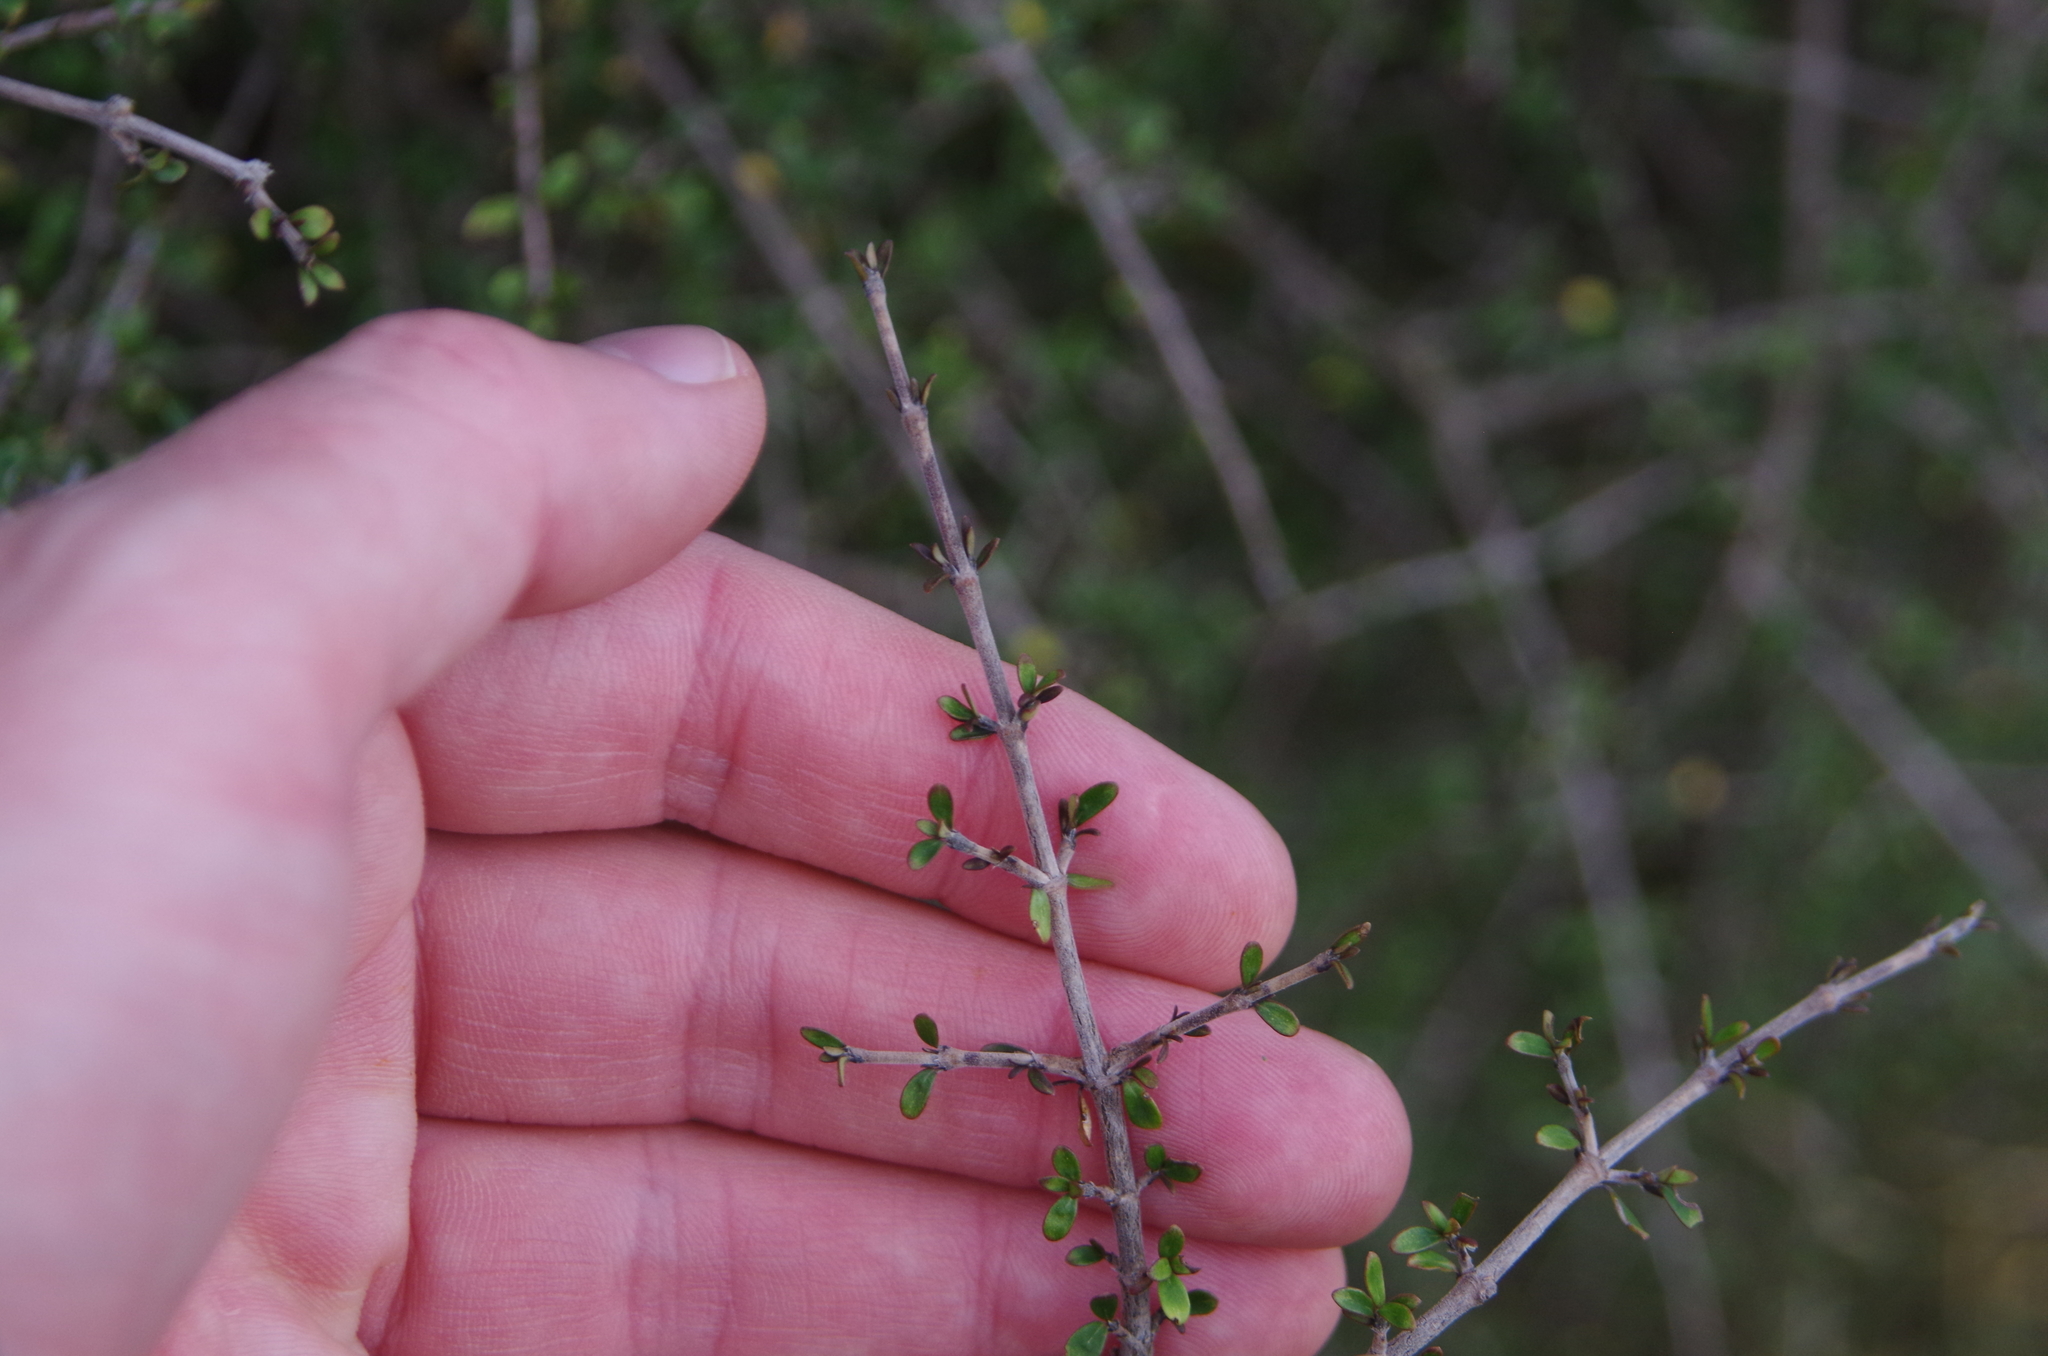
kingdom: Plantae
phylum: Tracheophyta
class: Magnoliopsida
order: Gentianales
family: Rubiaceae
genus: Coprosma
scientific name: Coprosma propinqua
